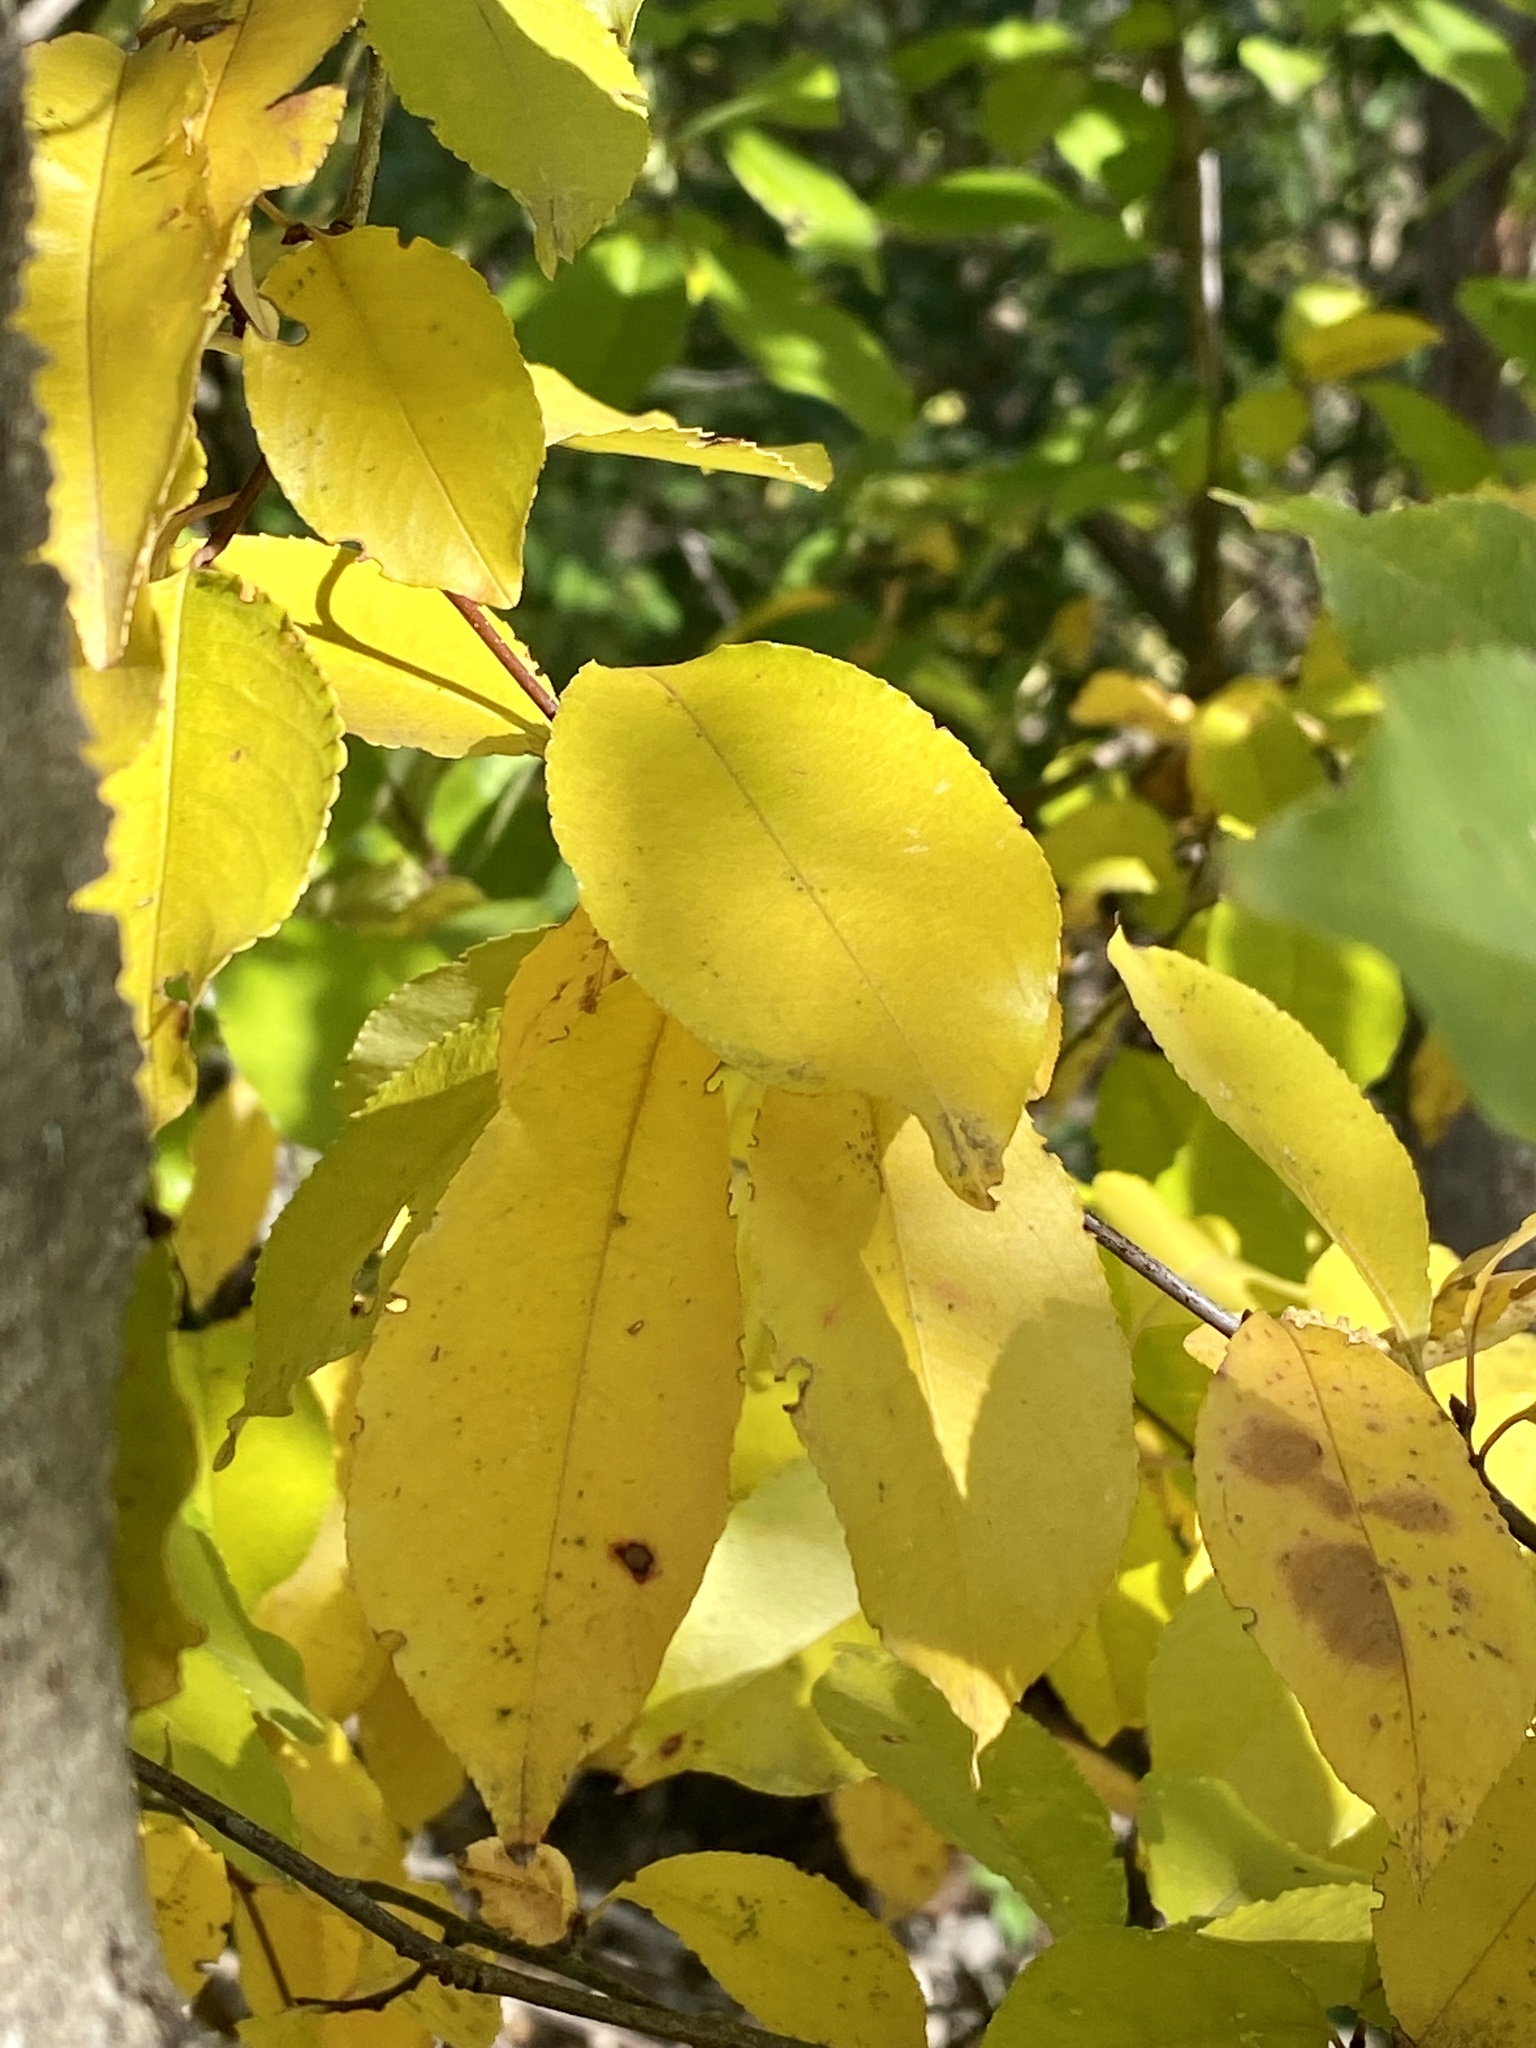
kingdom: Plantae
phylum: Tracheophyta
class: Magnoliopsida
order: Rosales
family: Rosaceae
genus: Prunus
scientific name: Prunus serotina
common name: Black cherry
